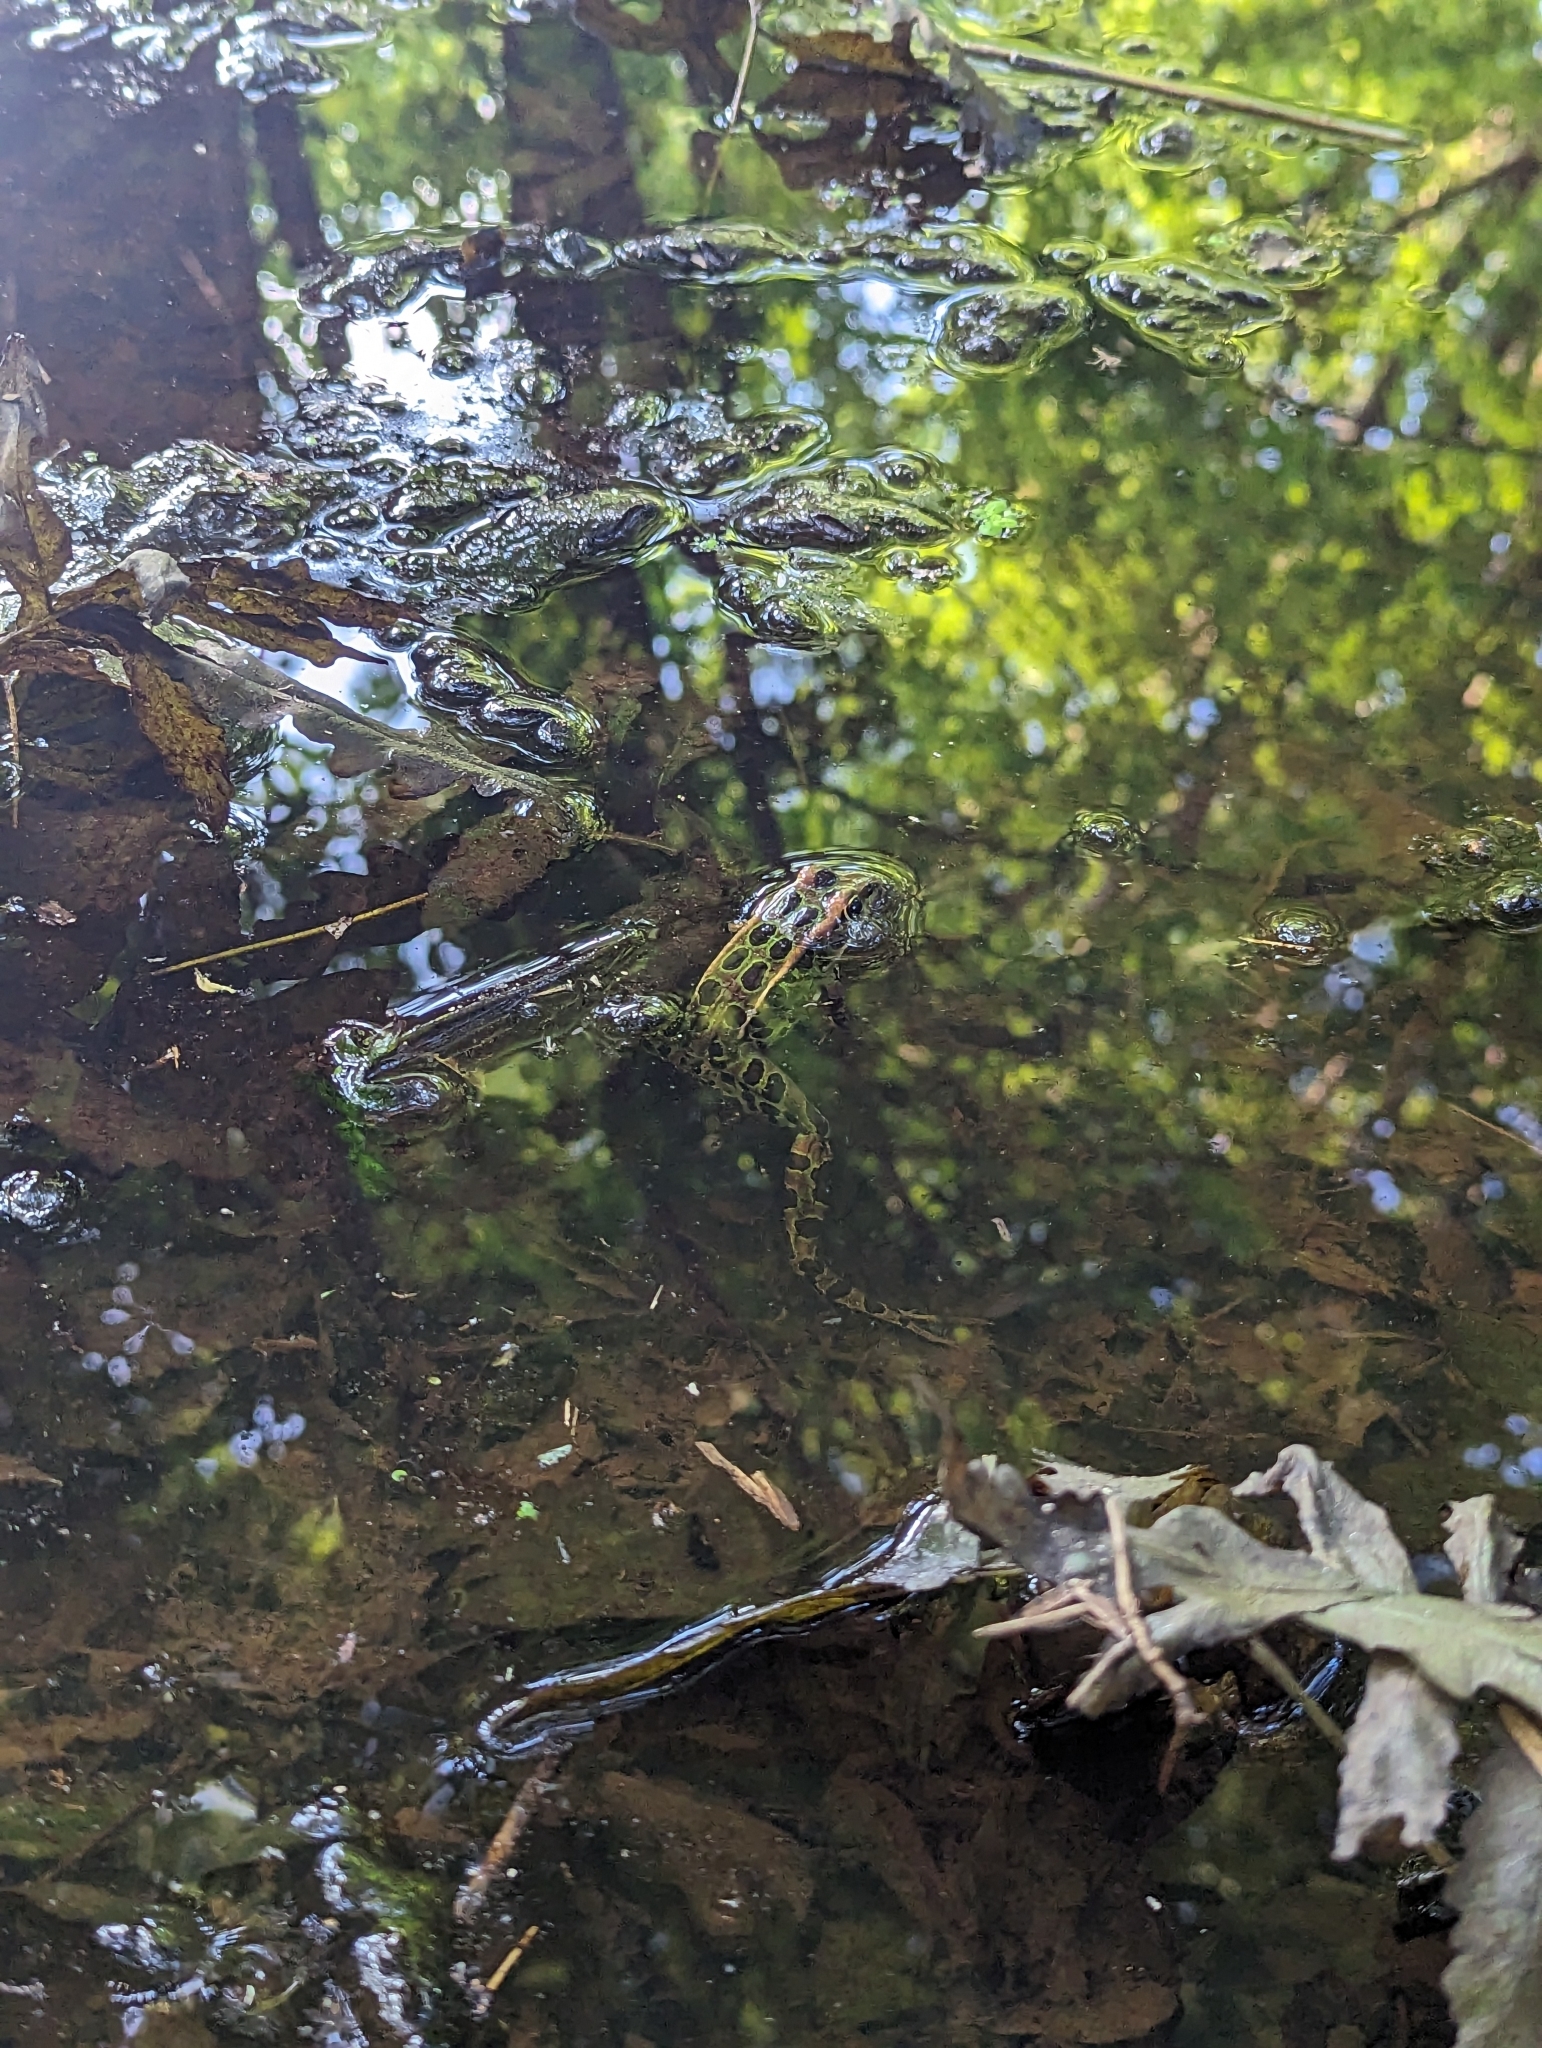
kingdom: Animalia
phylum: Chordata
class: Amphibia
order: Anura
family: Ranidae
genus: Lithobates
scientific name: Lithobates pipiens
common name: Northern leopard frog
